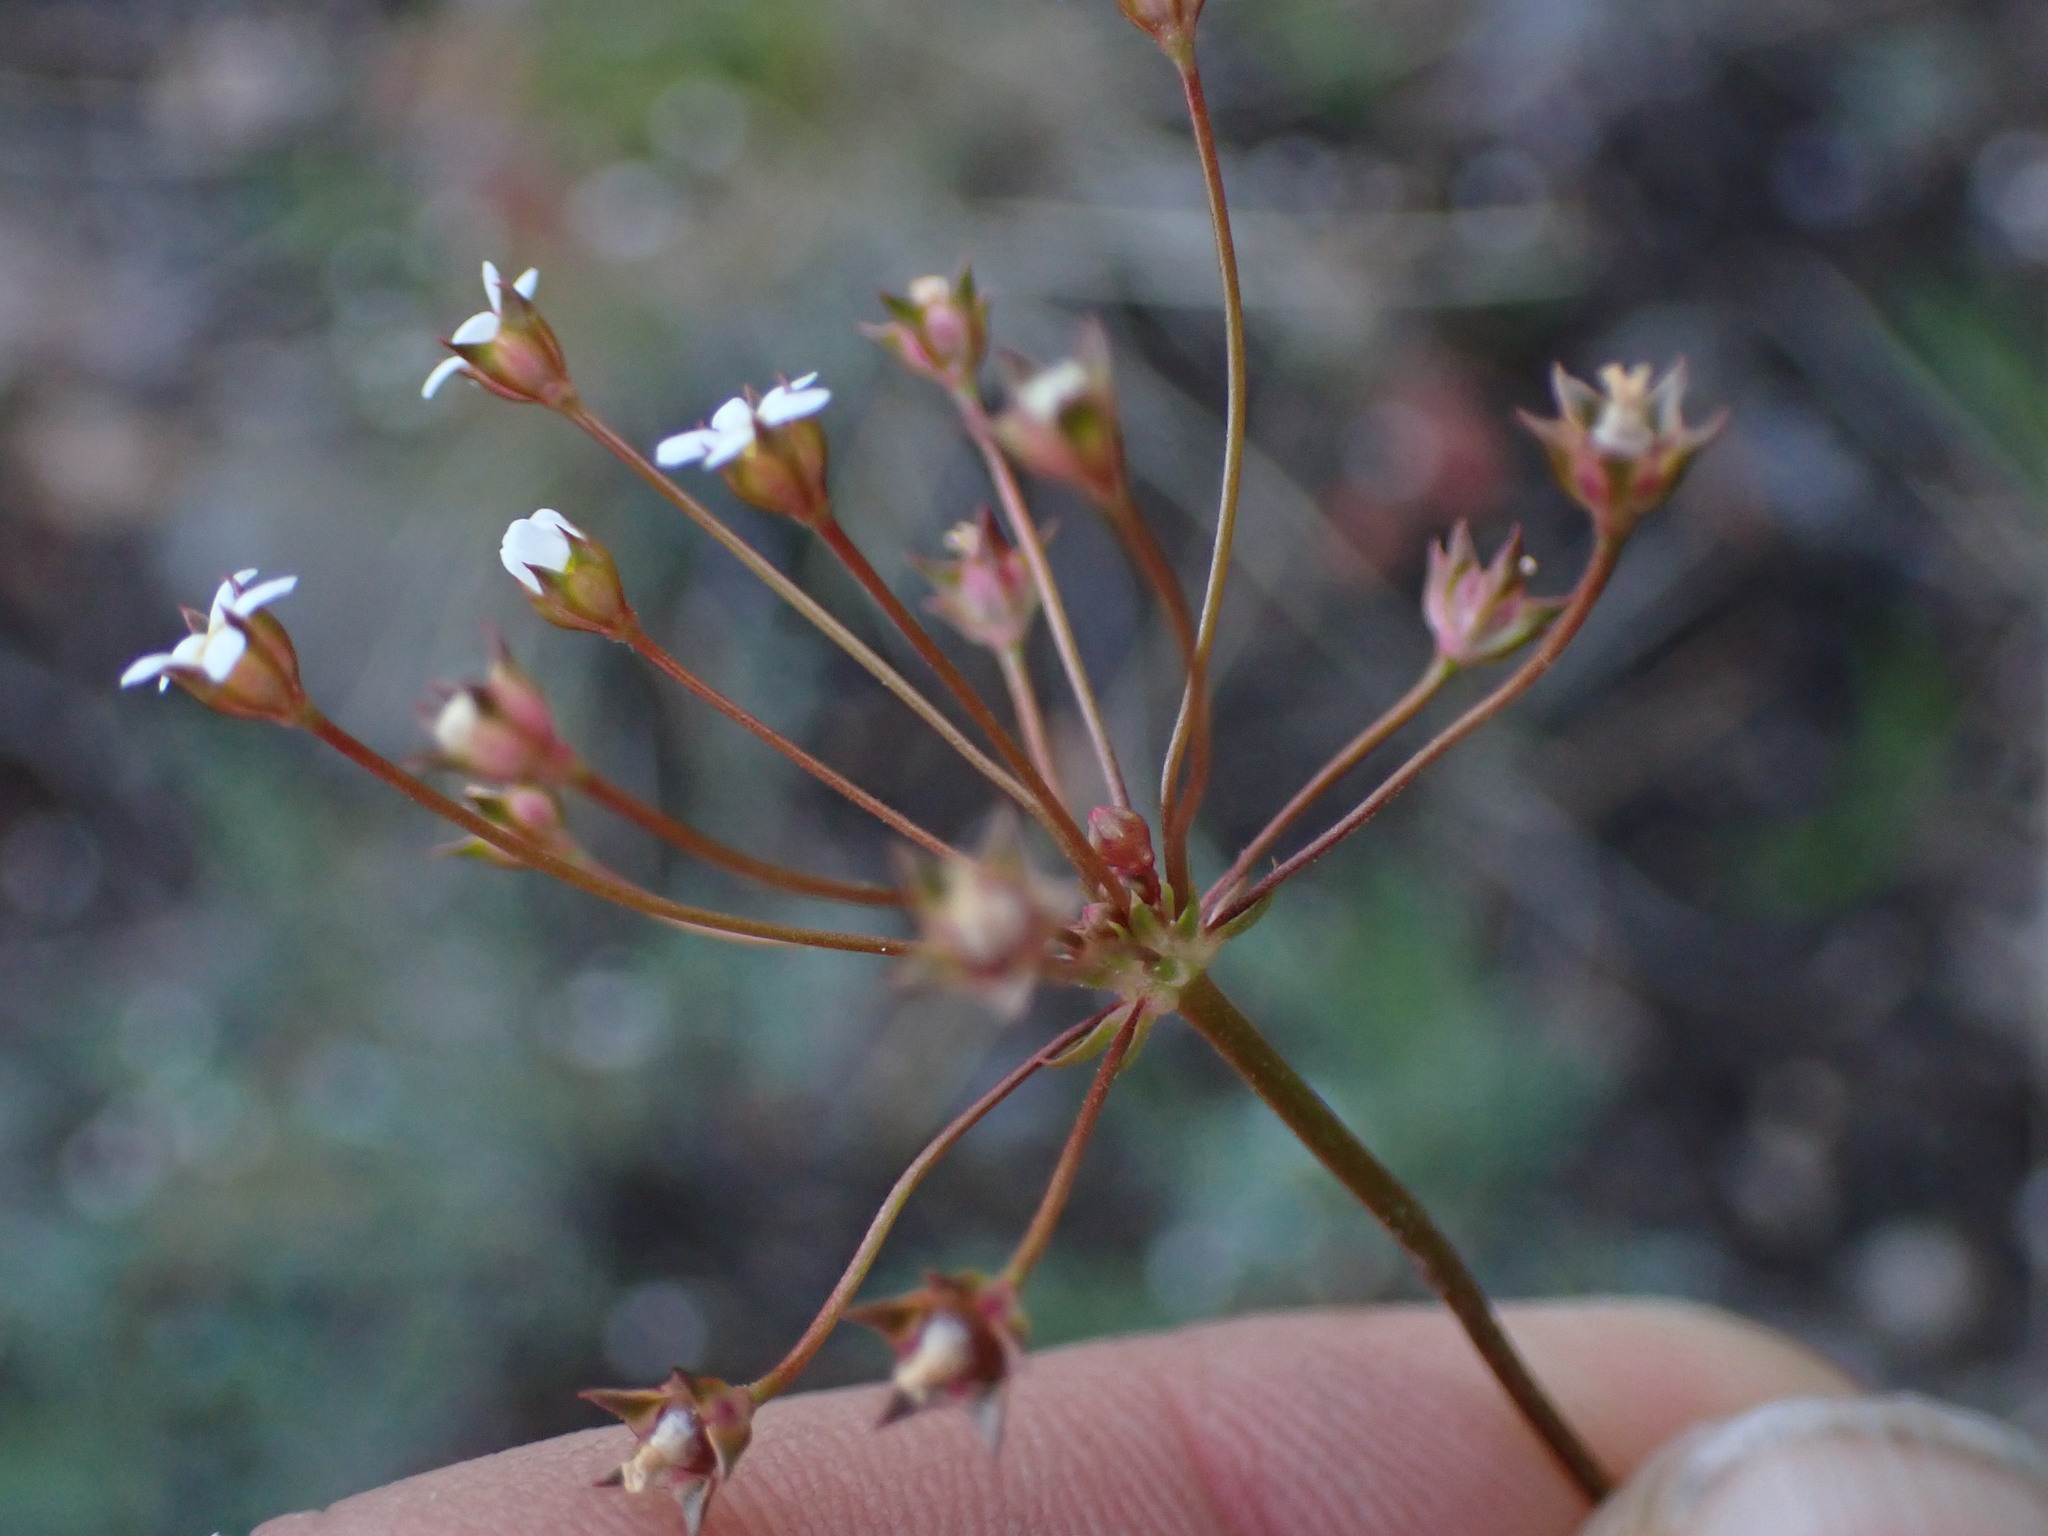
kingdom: Plantae
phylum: Tracheophyta
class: Magnoliopsida
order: Ericales
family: Primulaceae
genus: Androsace
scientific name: Androsace septentrionalis
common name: Hairy northern fairy-candelabra
